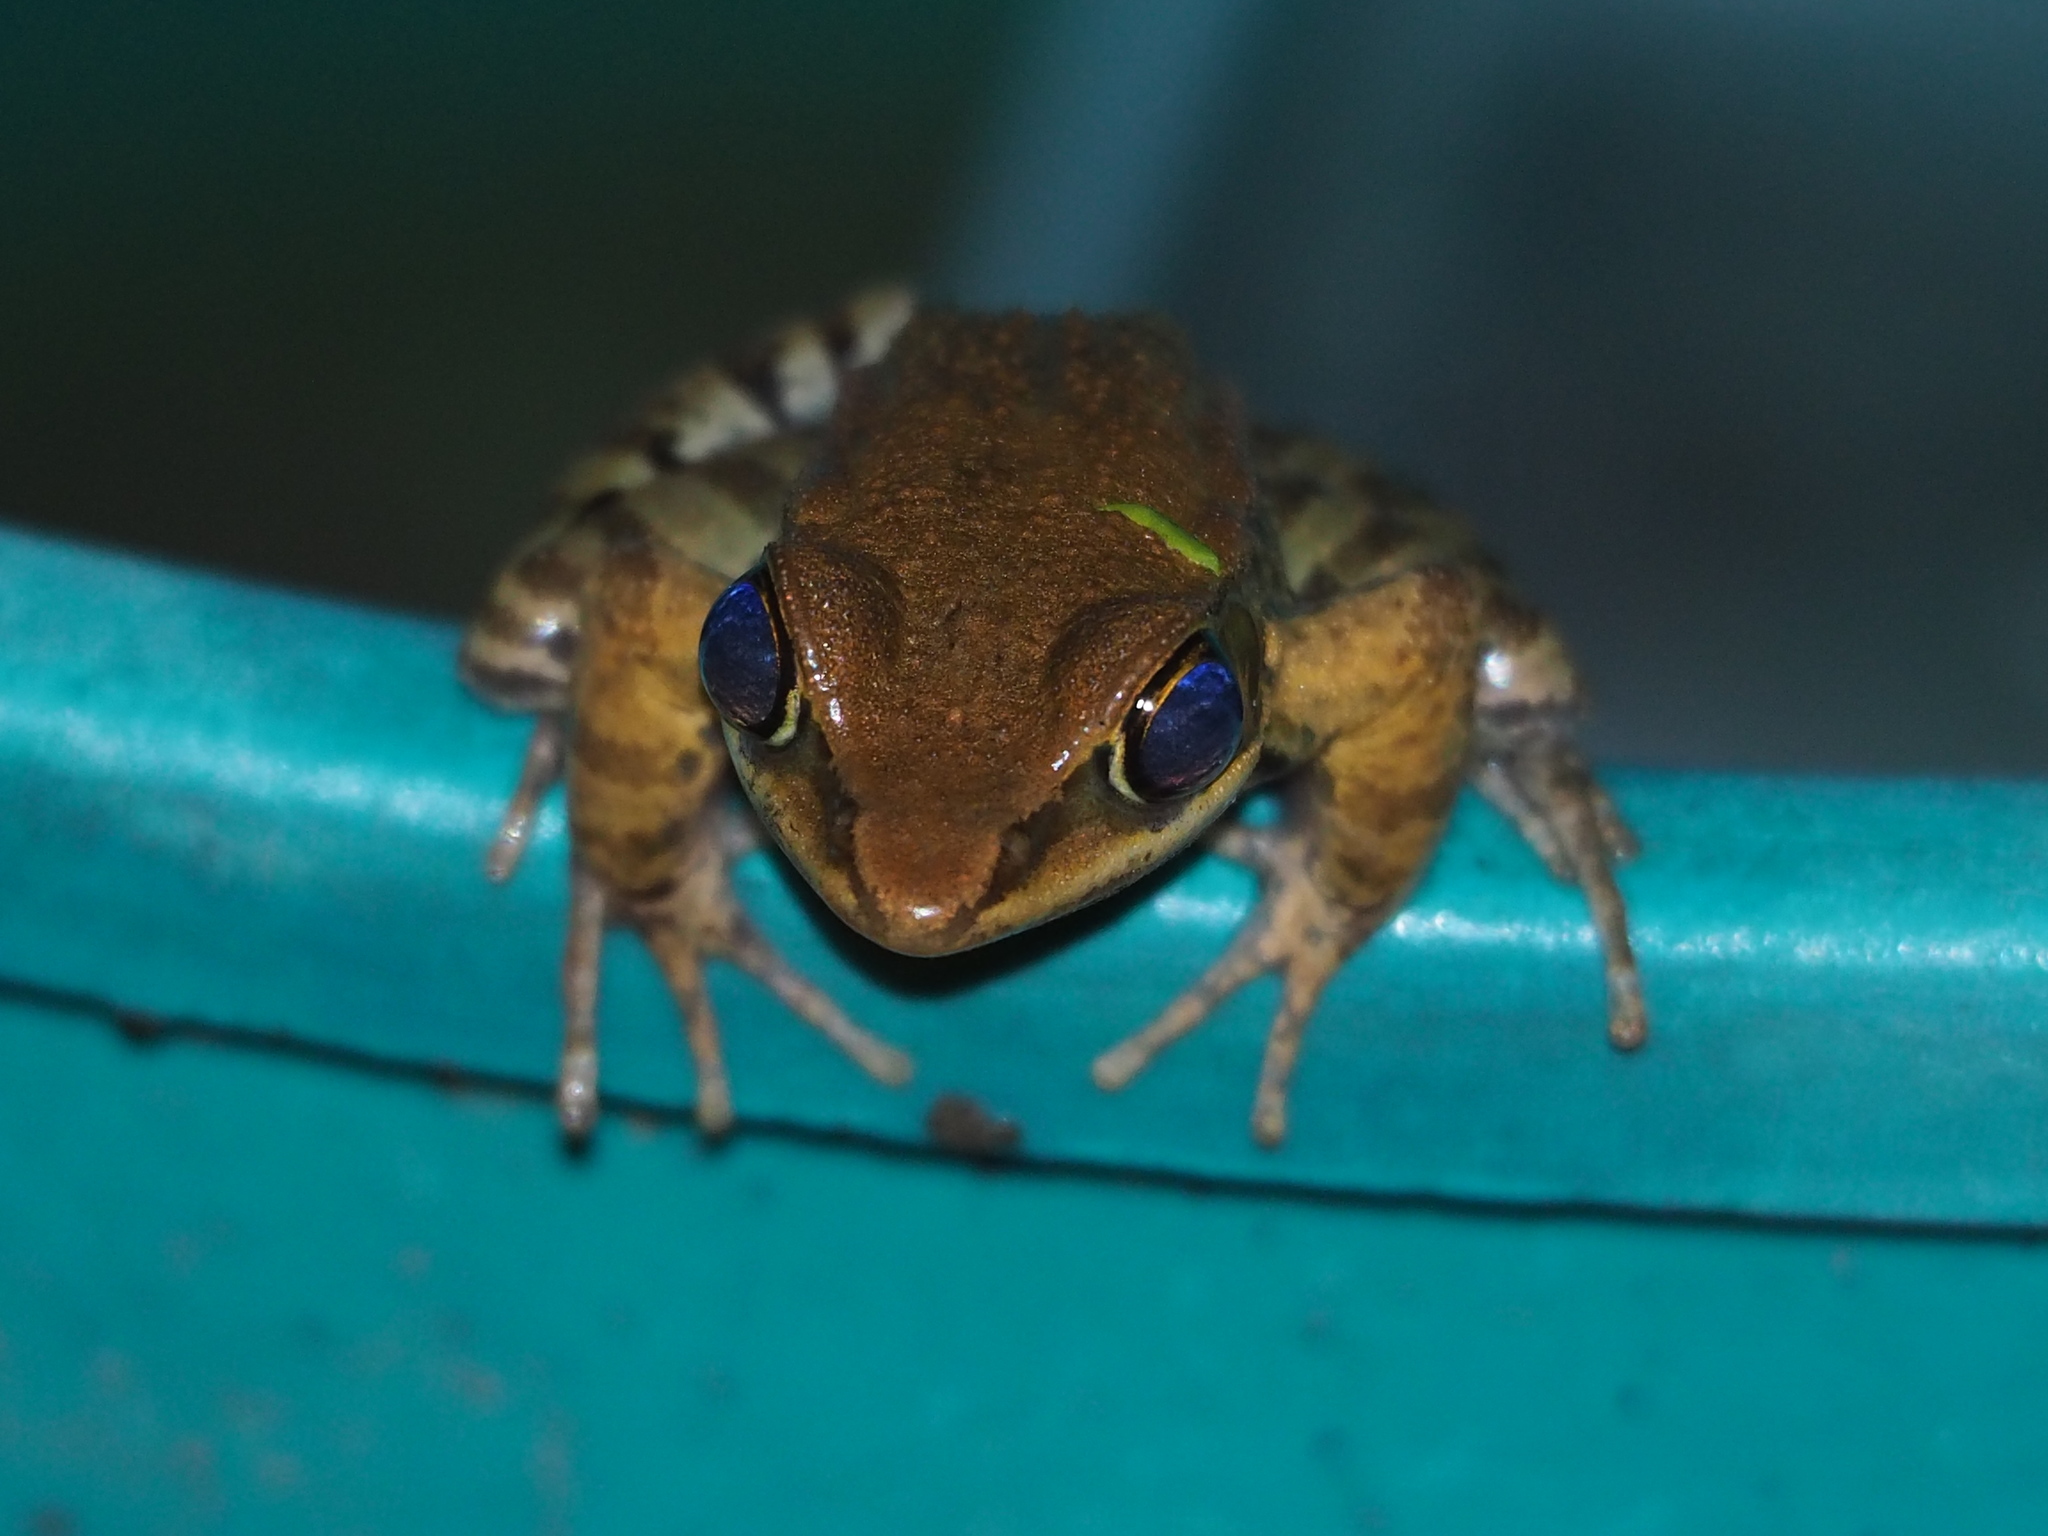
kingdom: Animalia
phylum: Chordata
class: Amphibia
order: Anura
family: Ranidae
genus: Hylarana
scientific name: Hylarana latouchii
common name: Broad-folded frog
